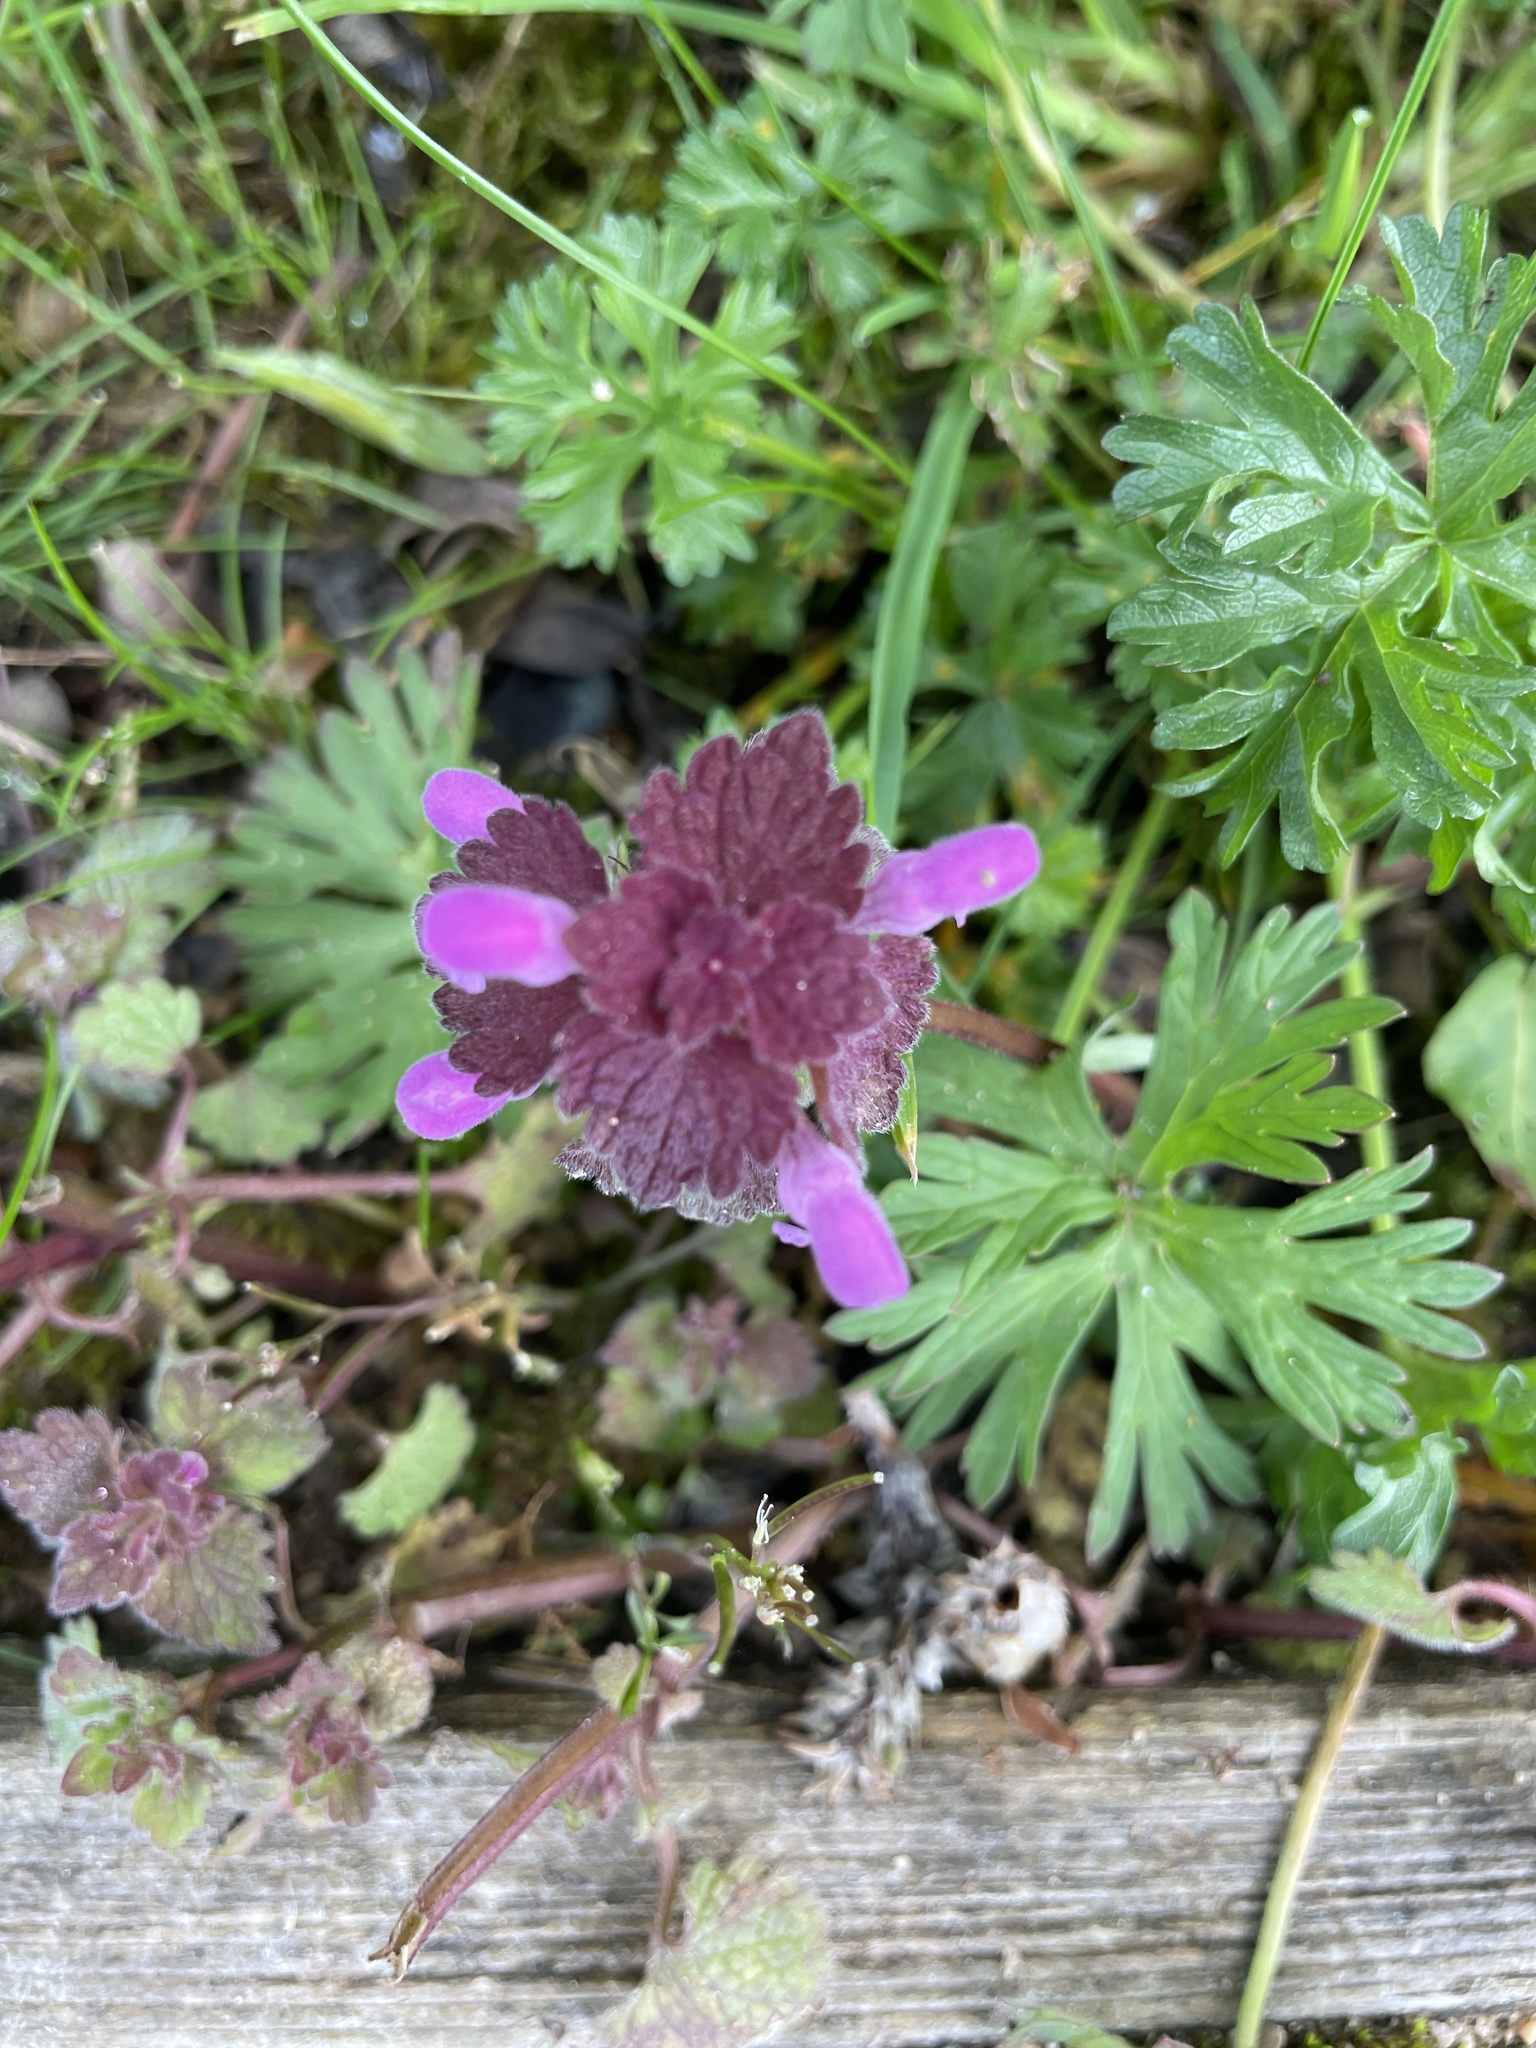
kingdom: Plantae
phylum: Tracheophyta
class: Magnoliopsida
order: Lamiales
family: Lamiaceae
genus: Lamium
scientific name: Lamium purpureum
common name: Red dead-nettle
